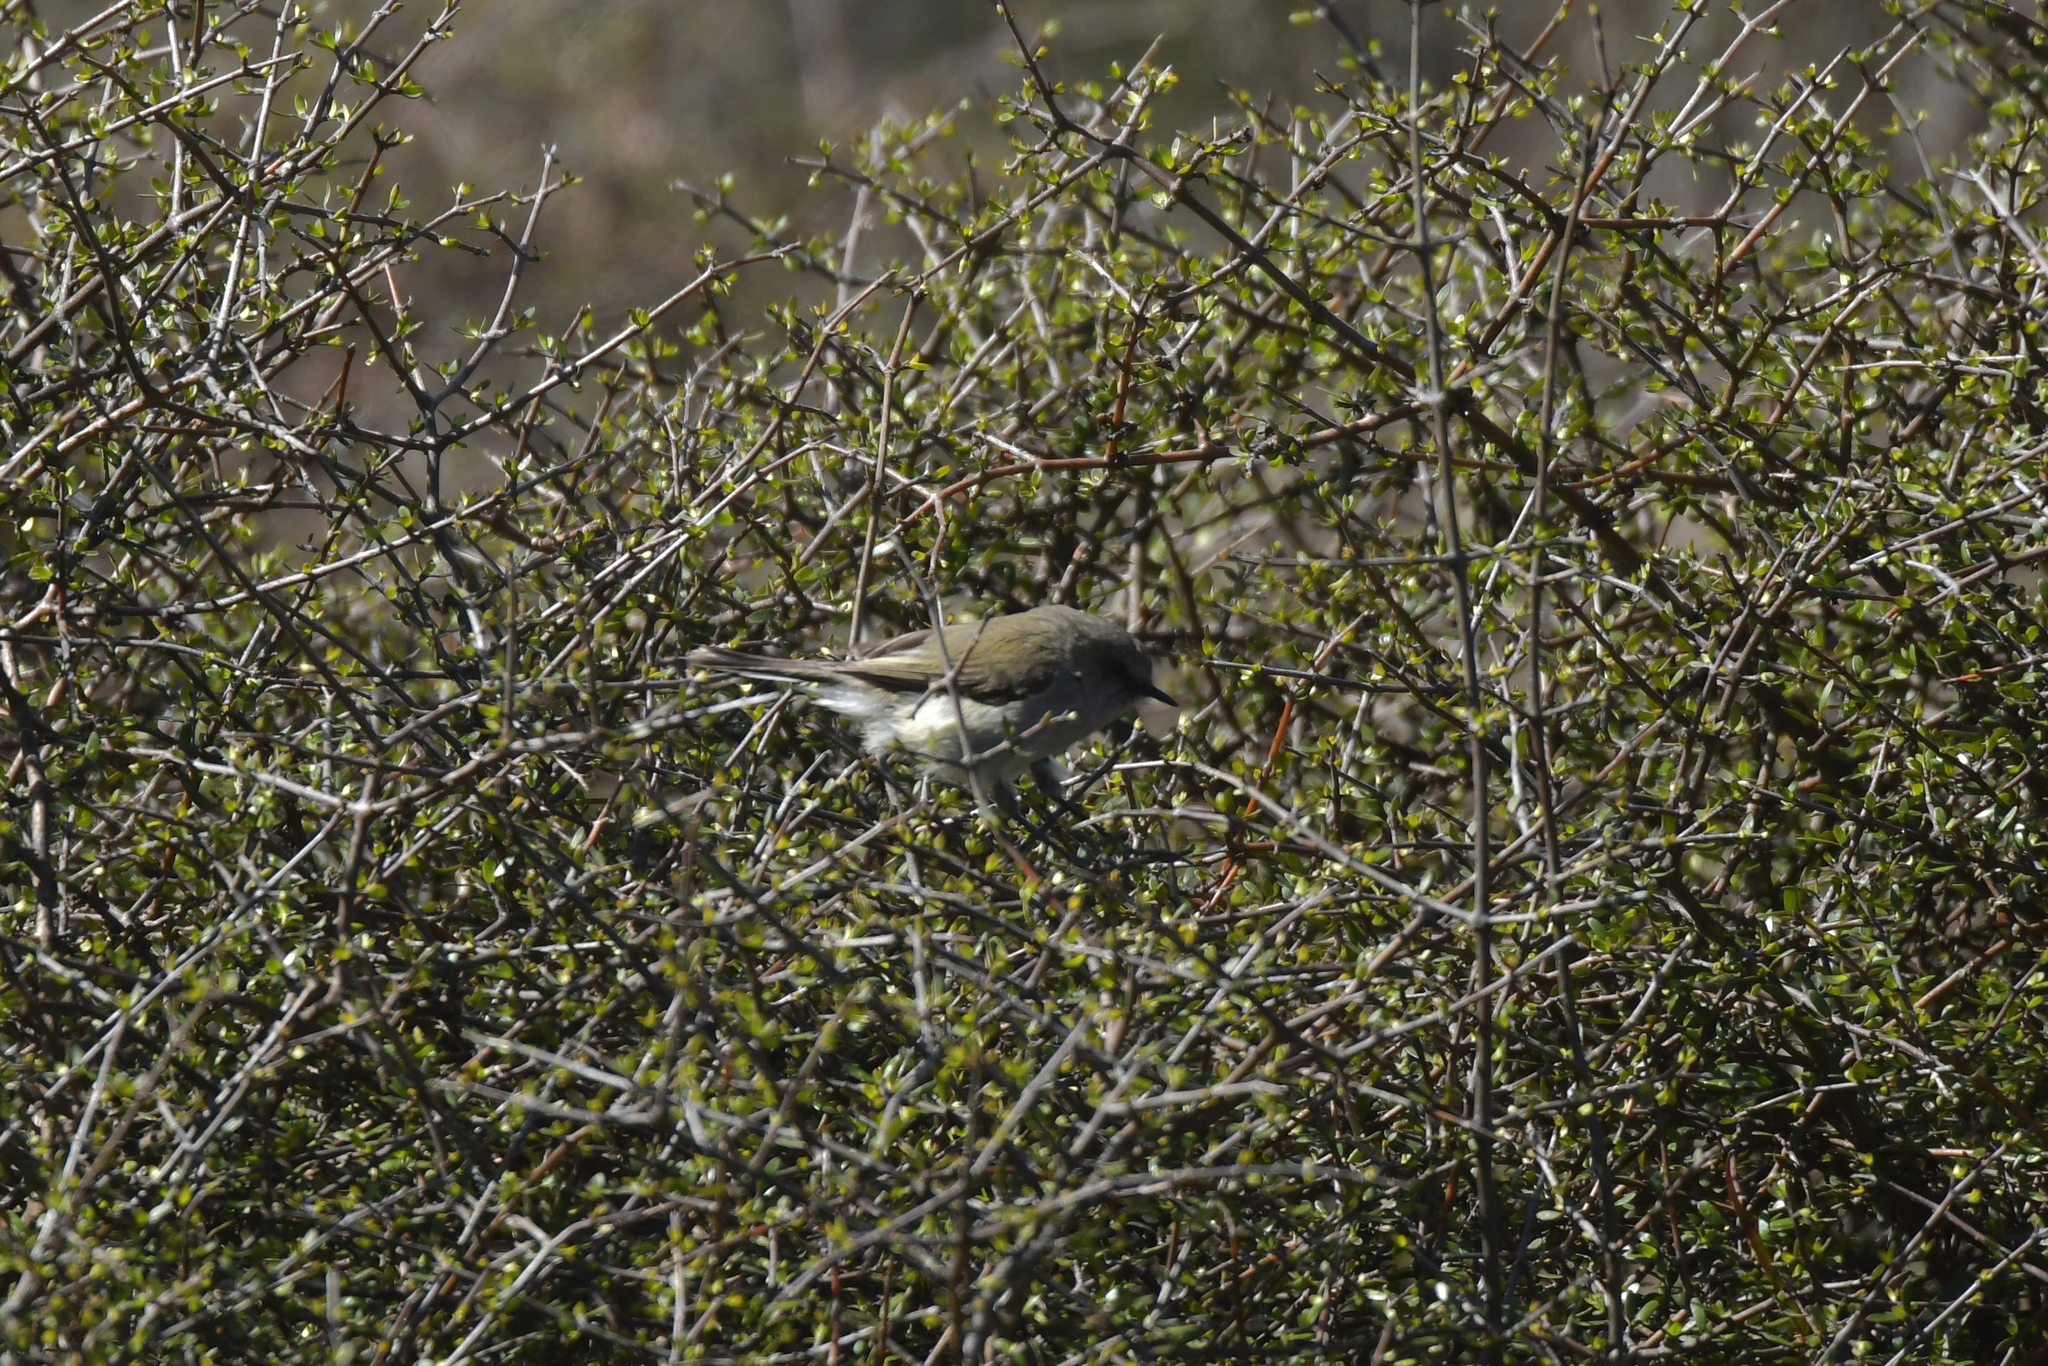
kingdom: Animalia
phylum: Chordata
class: Aves
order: Passeriformes
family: Acanthizidae
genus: Gerygone
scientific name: Gerygone igata
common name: Grey gerygone
